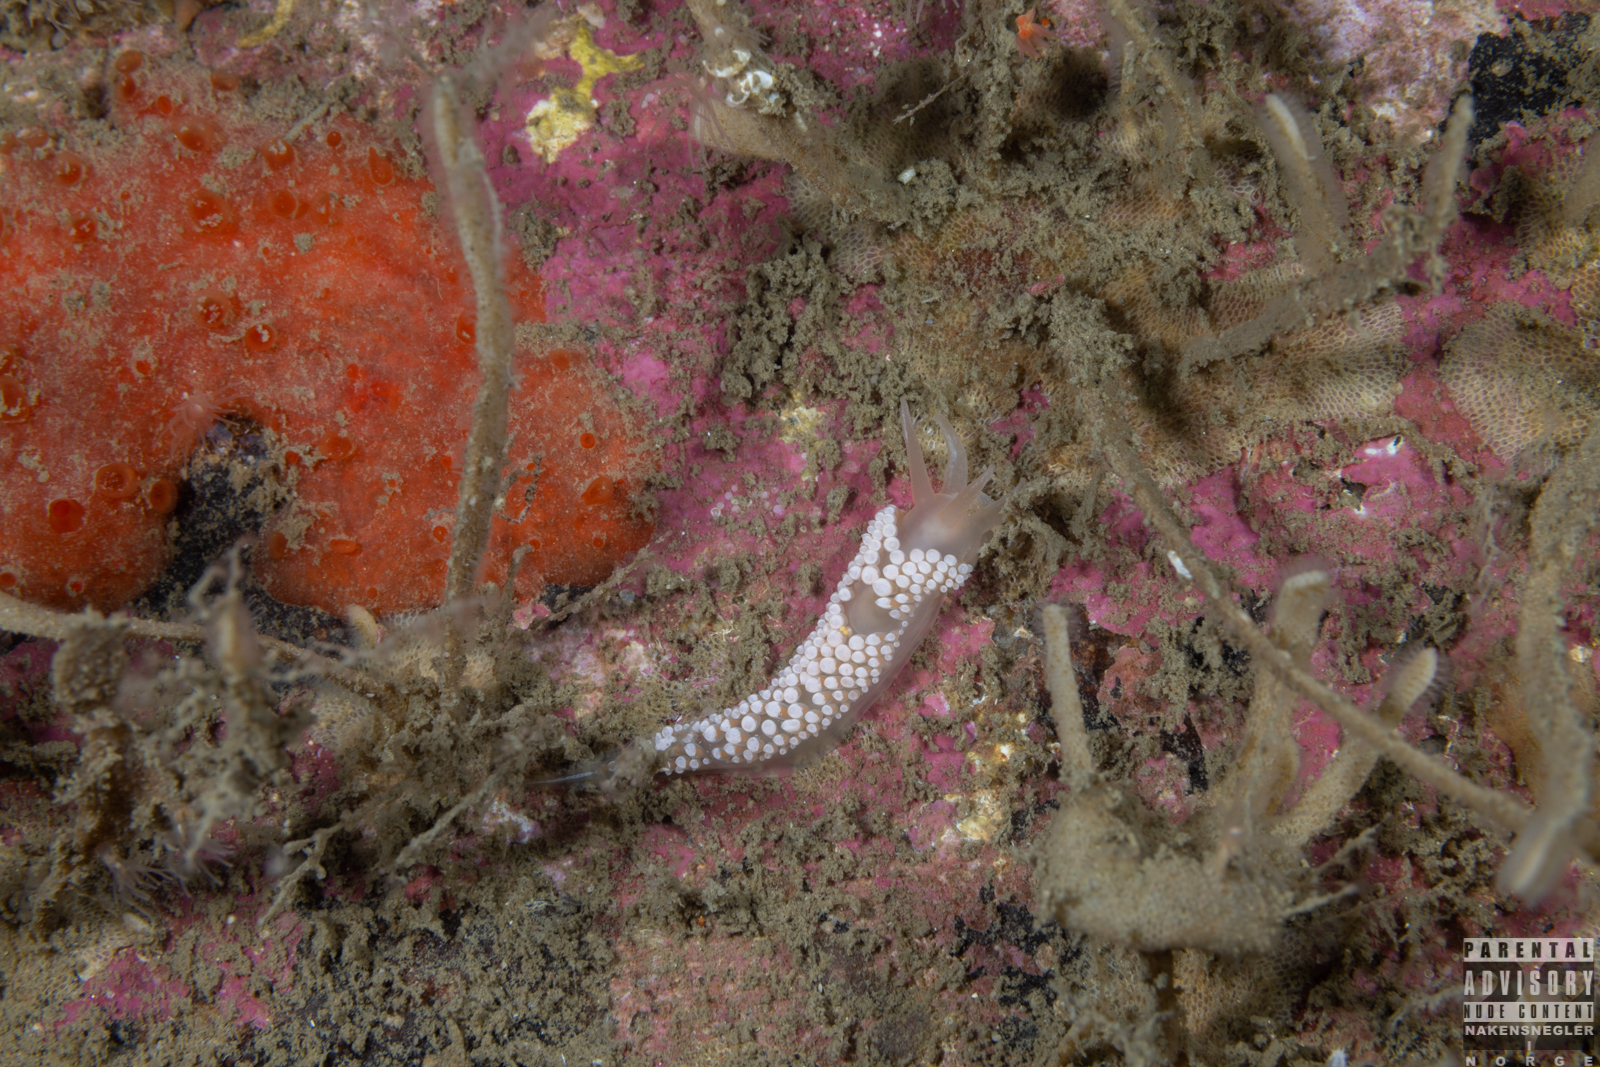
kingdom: Animalia
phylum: Mollusca
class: Gastropoda
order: Nudibranchia
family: Coryphellidae
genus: Coryphella
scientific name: Coryphella verrucosa
